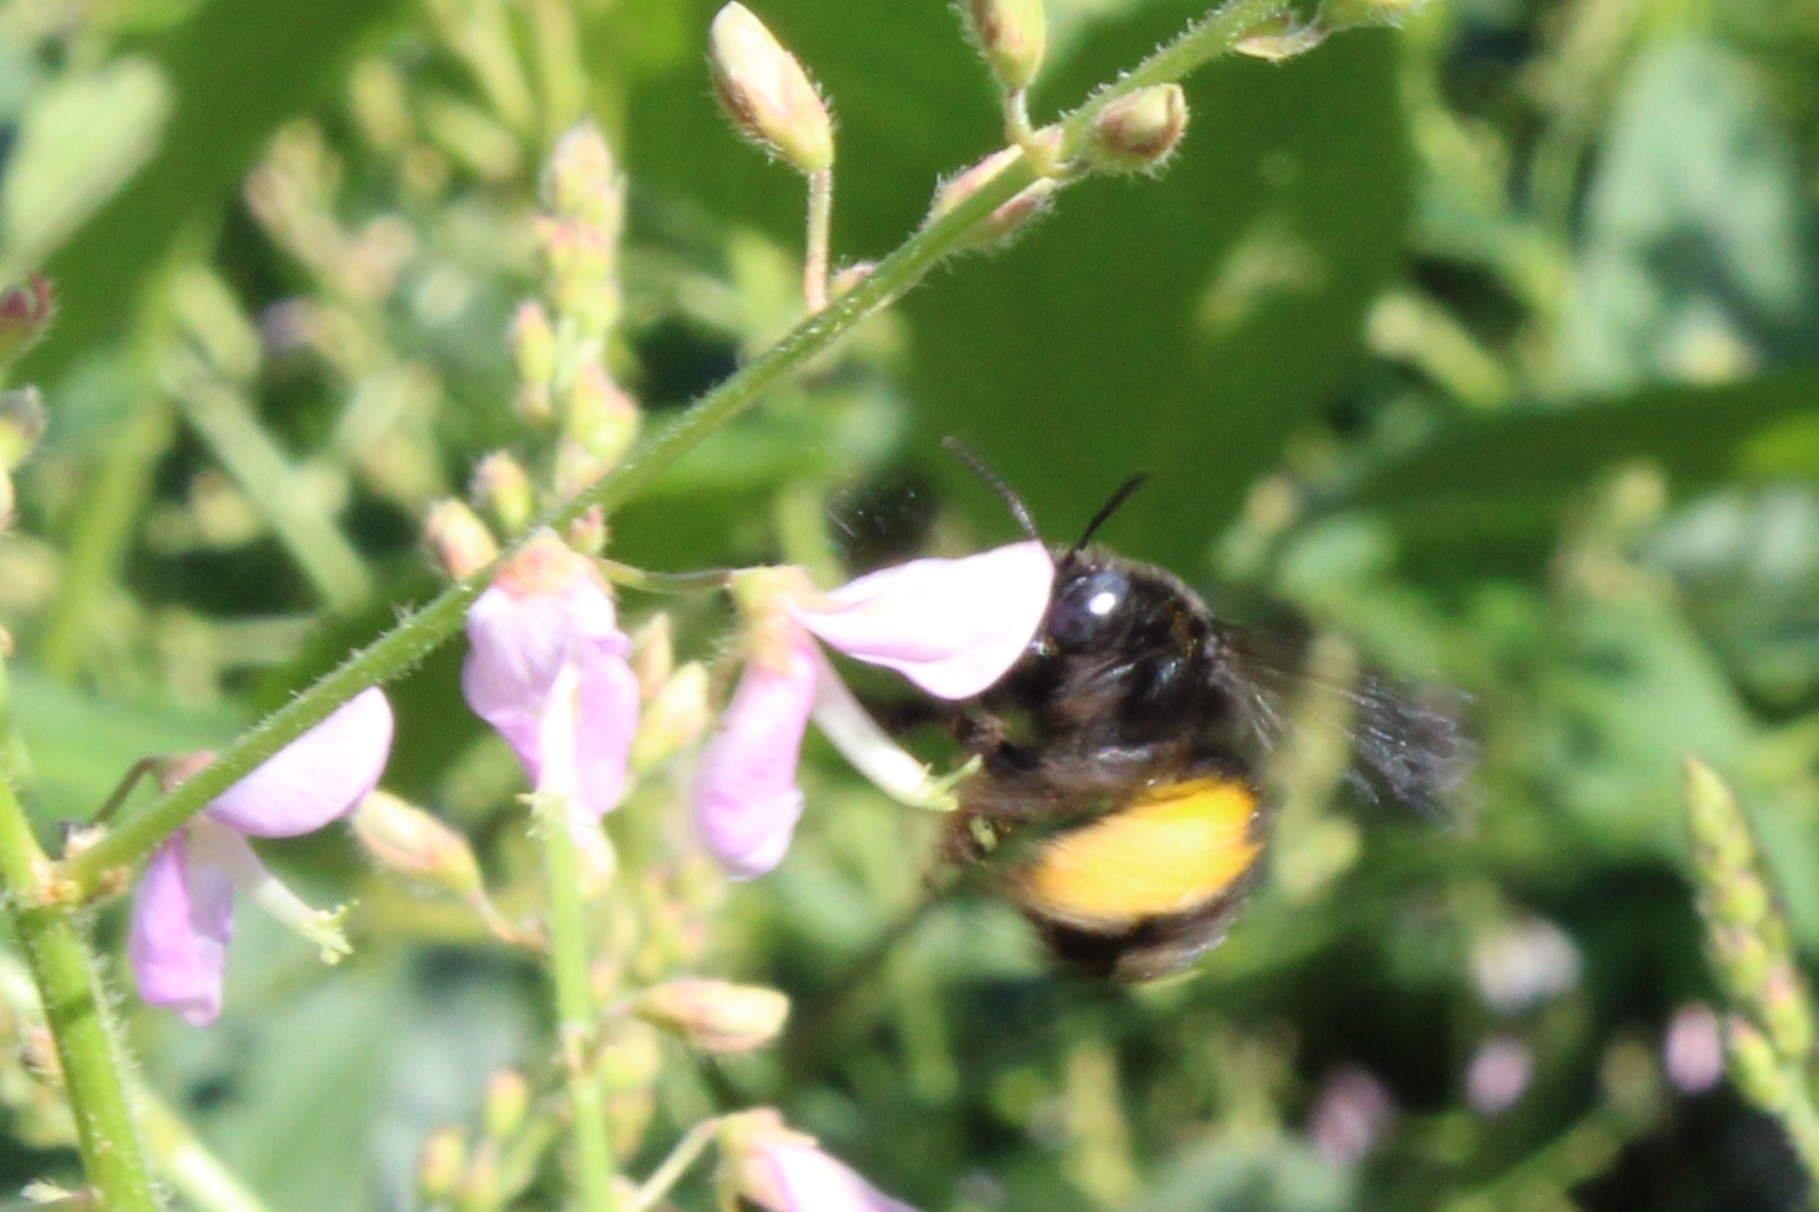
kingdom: Animalia
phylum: Arthropoda
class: Insecta
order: Hymenoptera
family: Apidae
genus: Melissodes
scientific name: Melissodes bimaculatus
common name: Two-spotted long-horned bee
